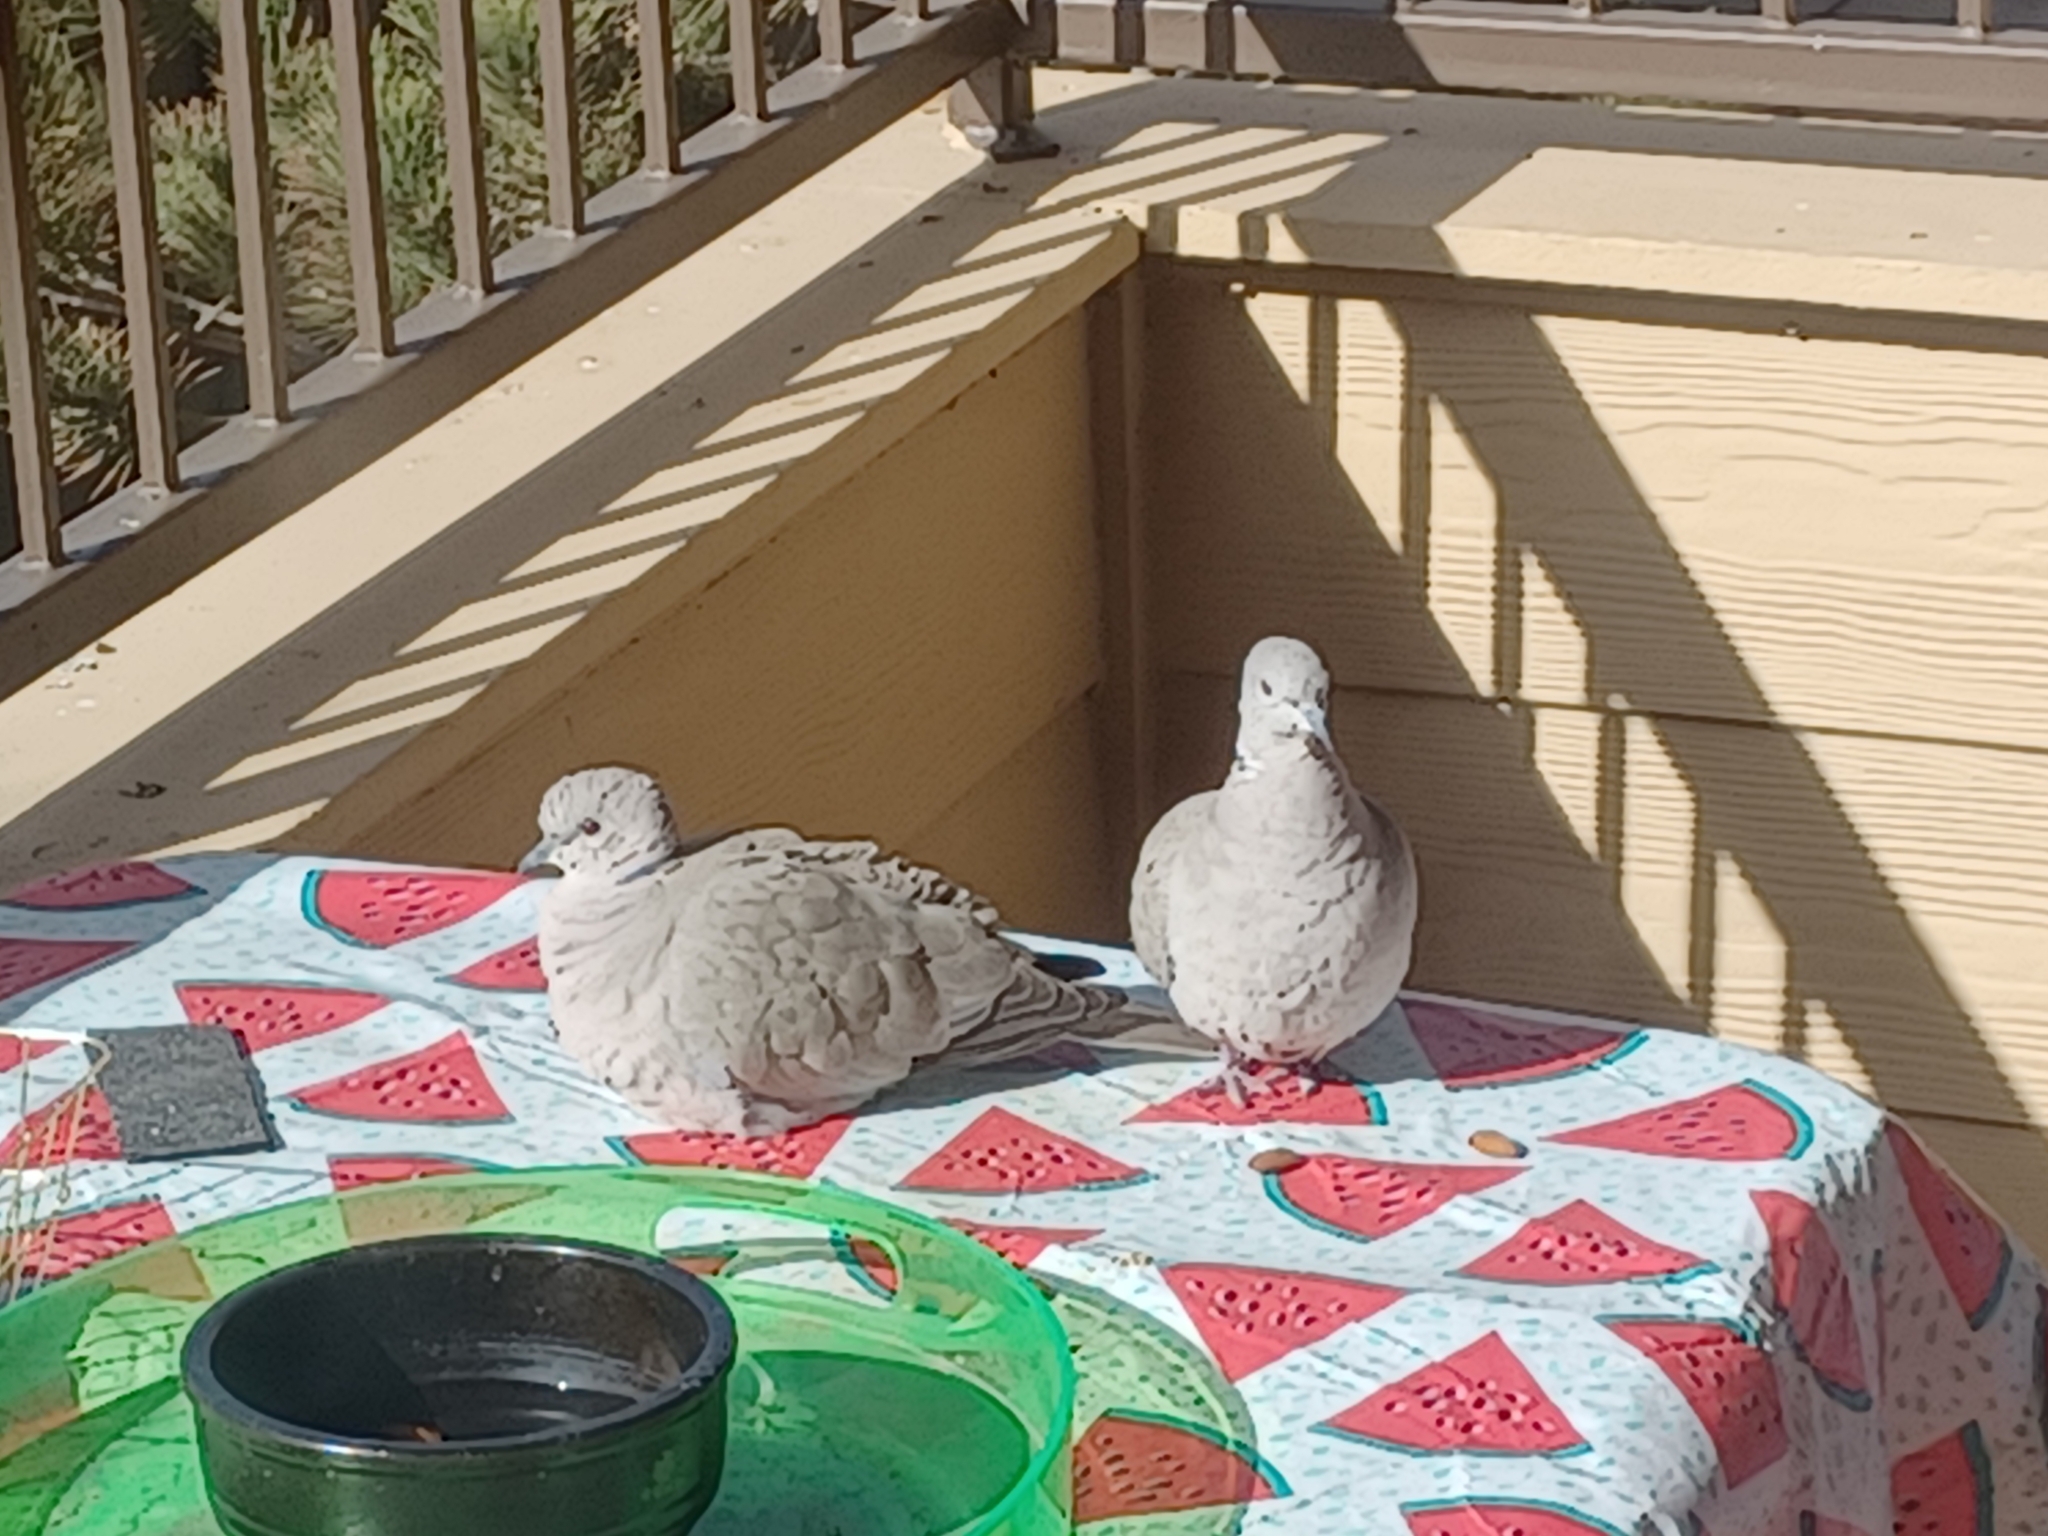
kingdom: Animalia
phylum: Chordata
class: Aves
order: Columbiformes
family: Columbidae
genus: Streptopelia
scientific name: Streptopelia decaocto
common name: Eurasian collared dove
